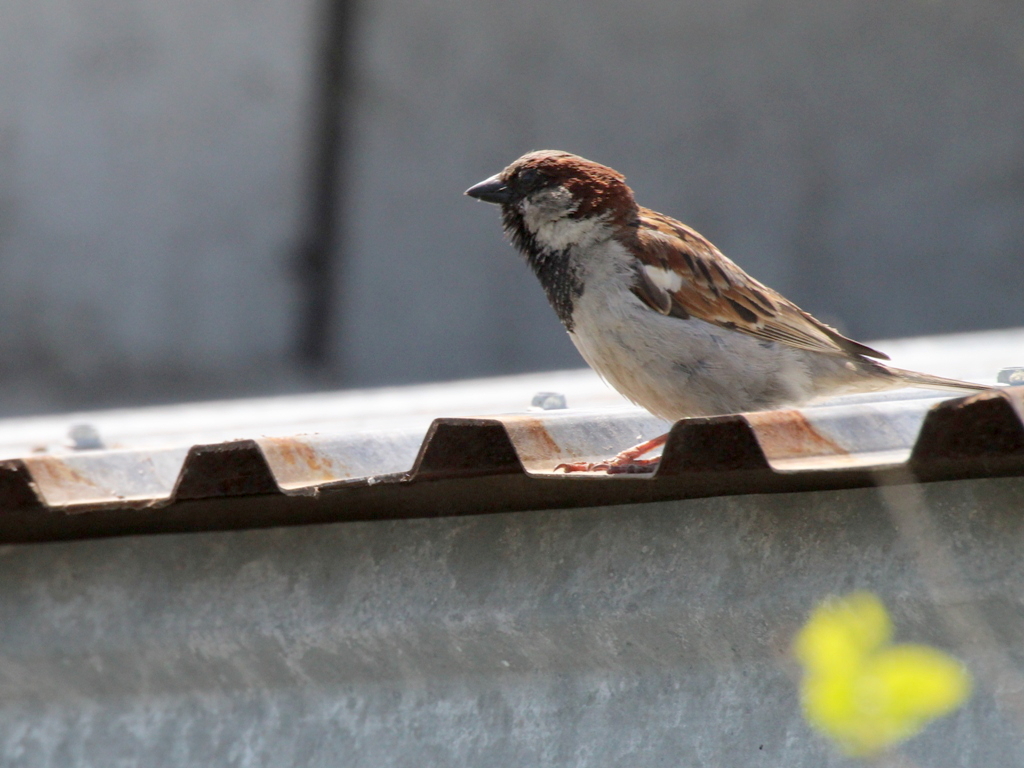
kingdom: Animalia
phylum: Chordata
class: Aves
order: Passeriformes
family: Passeridae
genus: Passer
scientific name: Passer domesticus
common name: House sparrow
